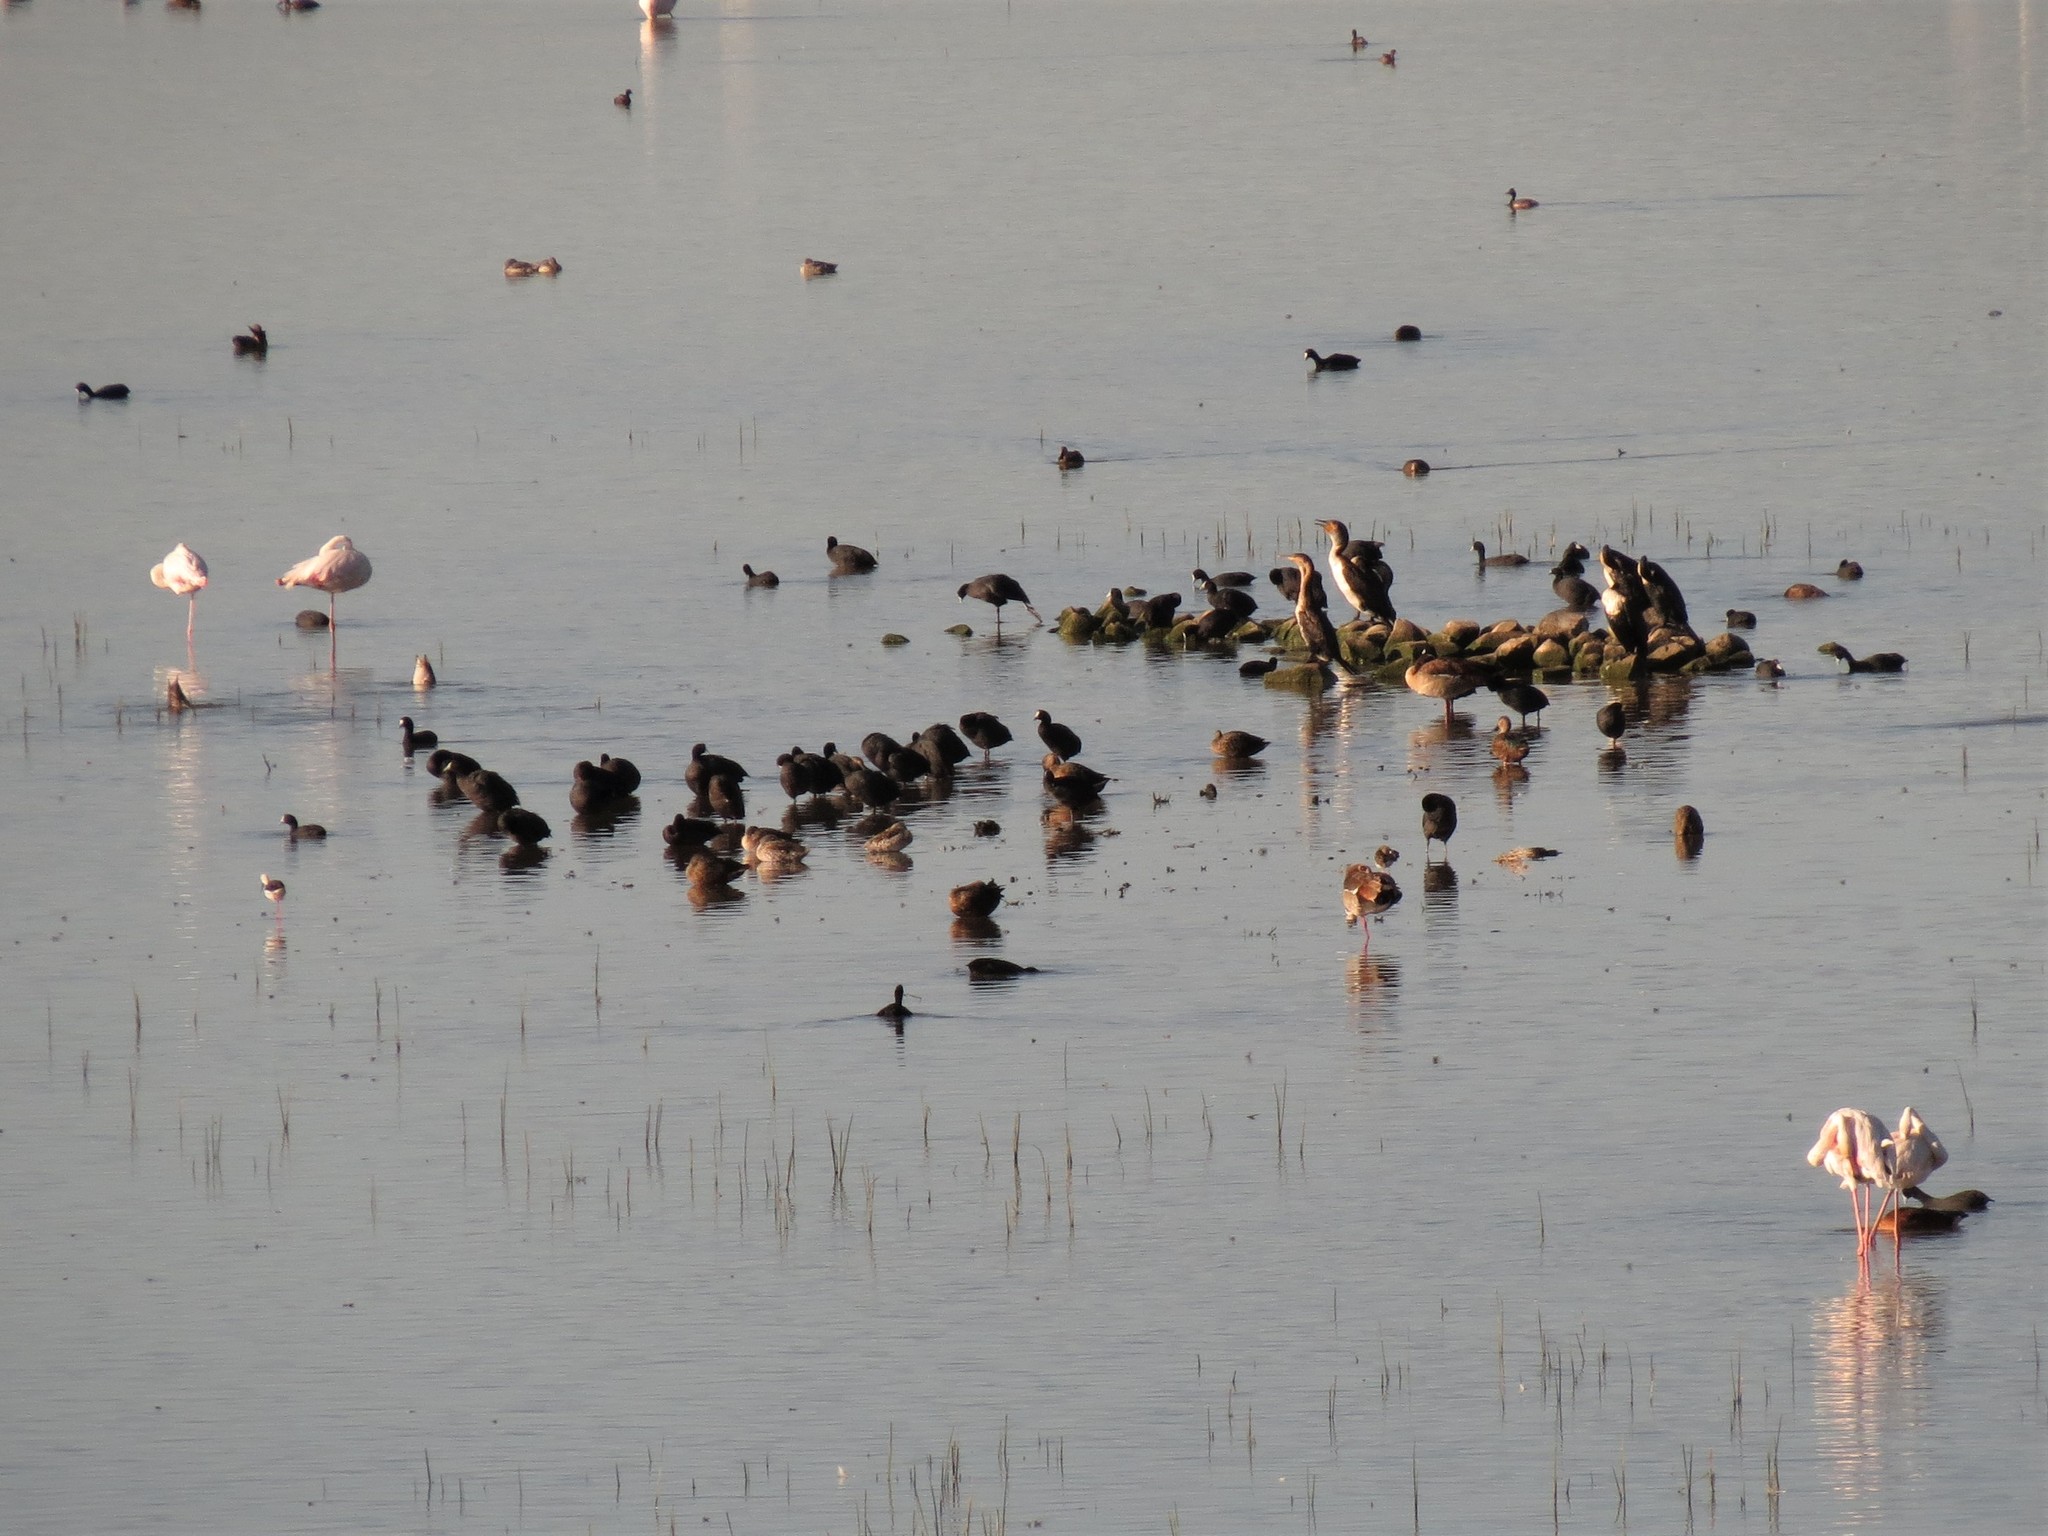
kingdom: Animalia
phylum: Chordata
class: Aves
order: Suliformes
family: Phalacrocoracidae
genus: Phalacrocorax
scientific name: Phalacrocorax carbo
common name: Great cormorant
